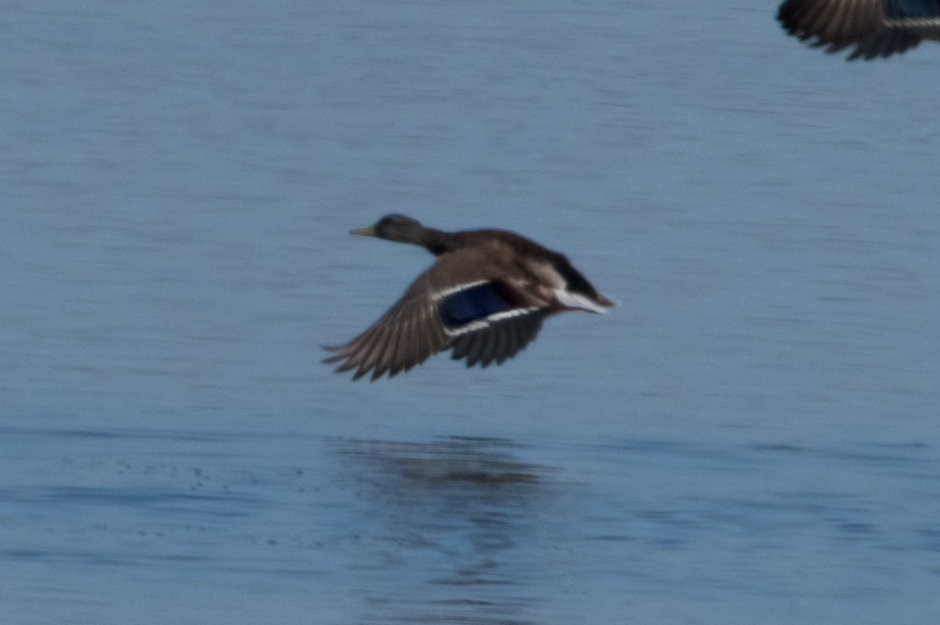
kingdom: Animalia
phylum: Chordata
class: Aves
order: Anseriformes
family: Anatidae
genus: Anas
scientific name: Anas platyrhynchos
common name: Mallard
